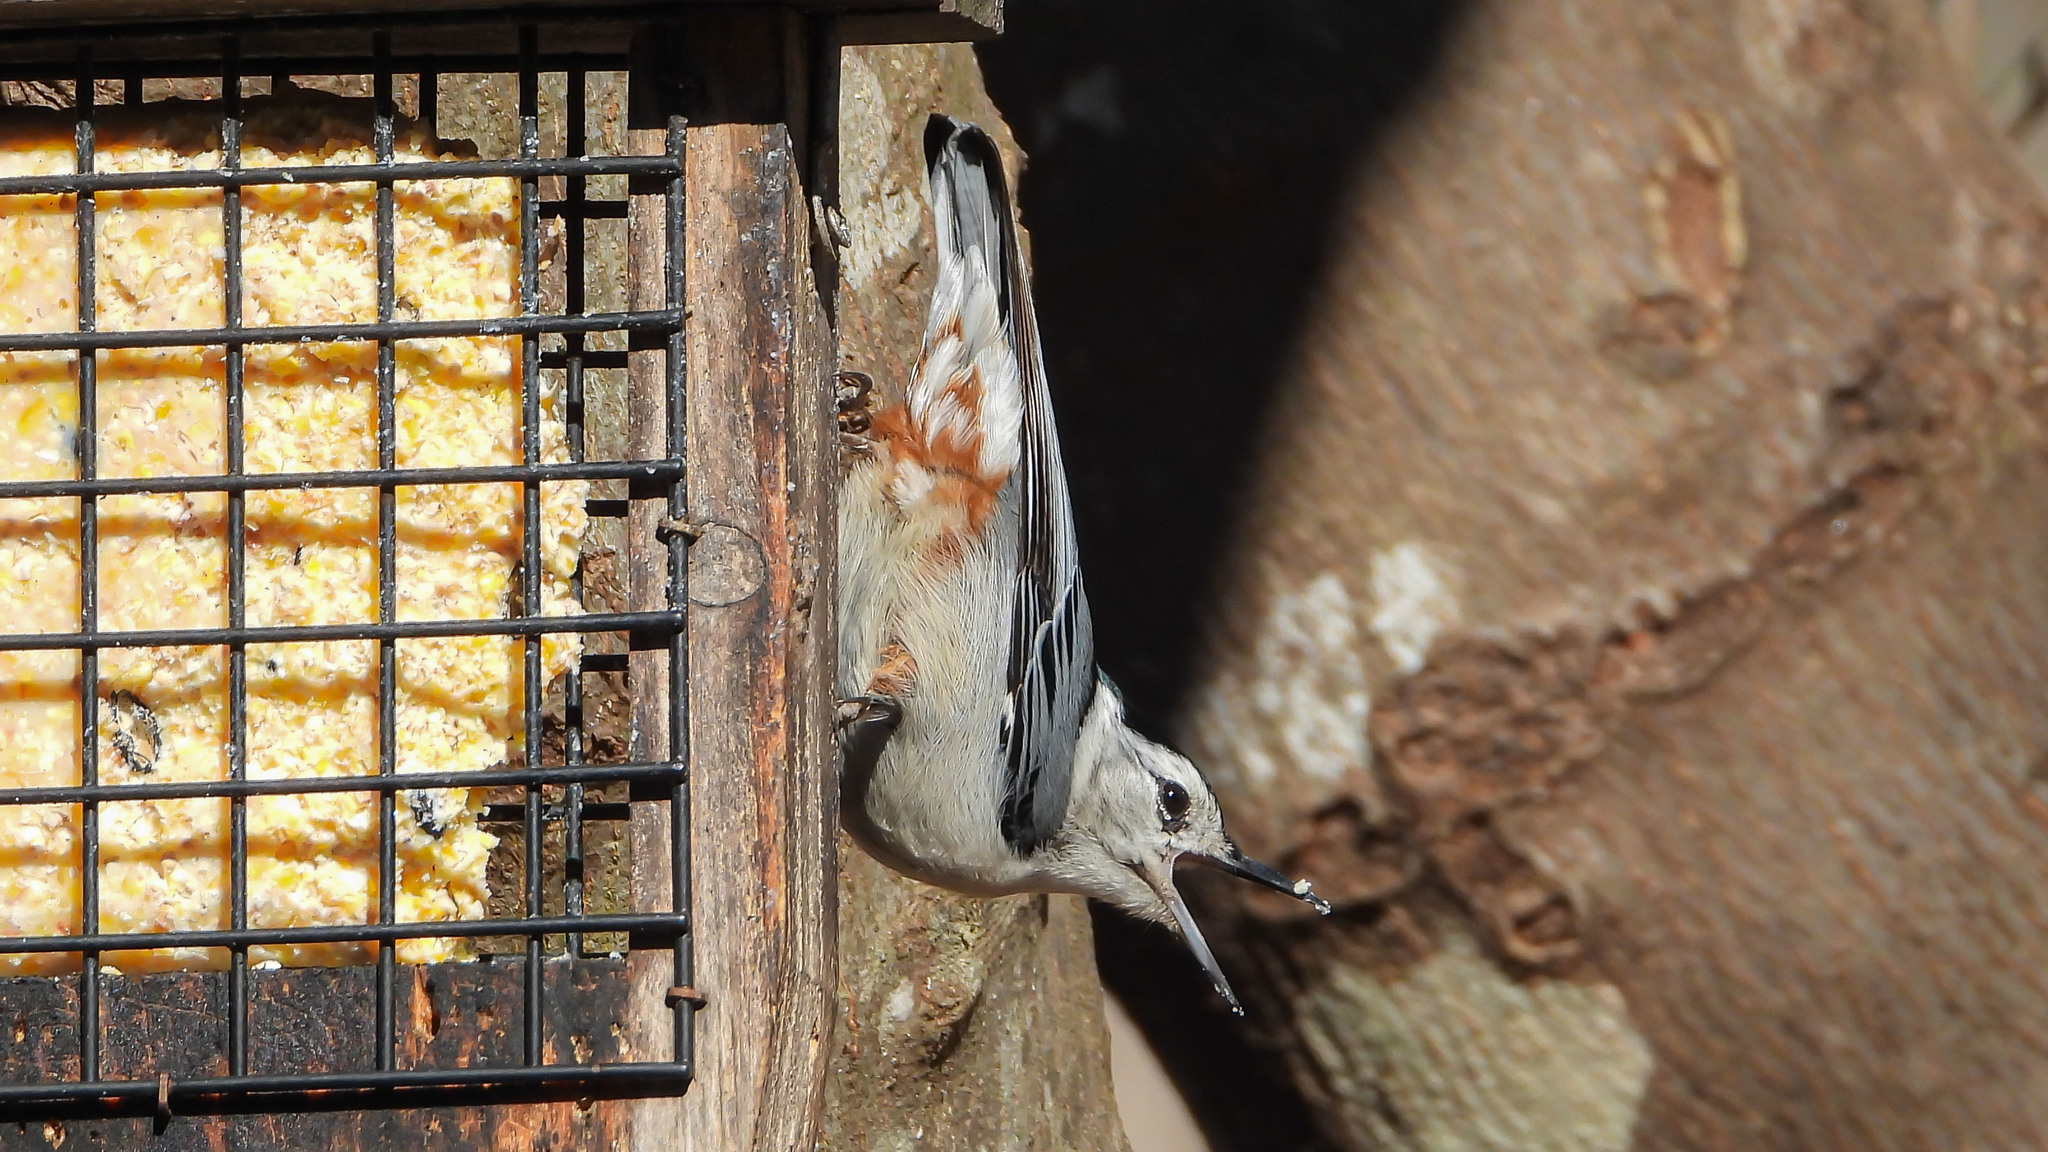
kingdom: Animalia
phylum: Chordata
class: Aves
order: Passeriformes
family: Sittidae
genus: Sitta
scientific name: Sitta carolinensis
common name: White-breasted nuthatch
